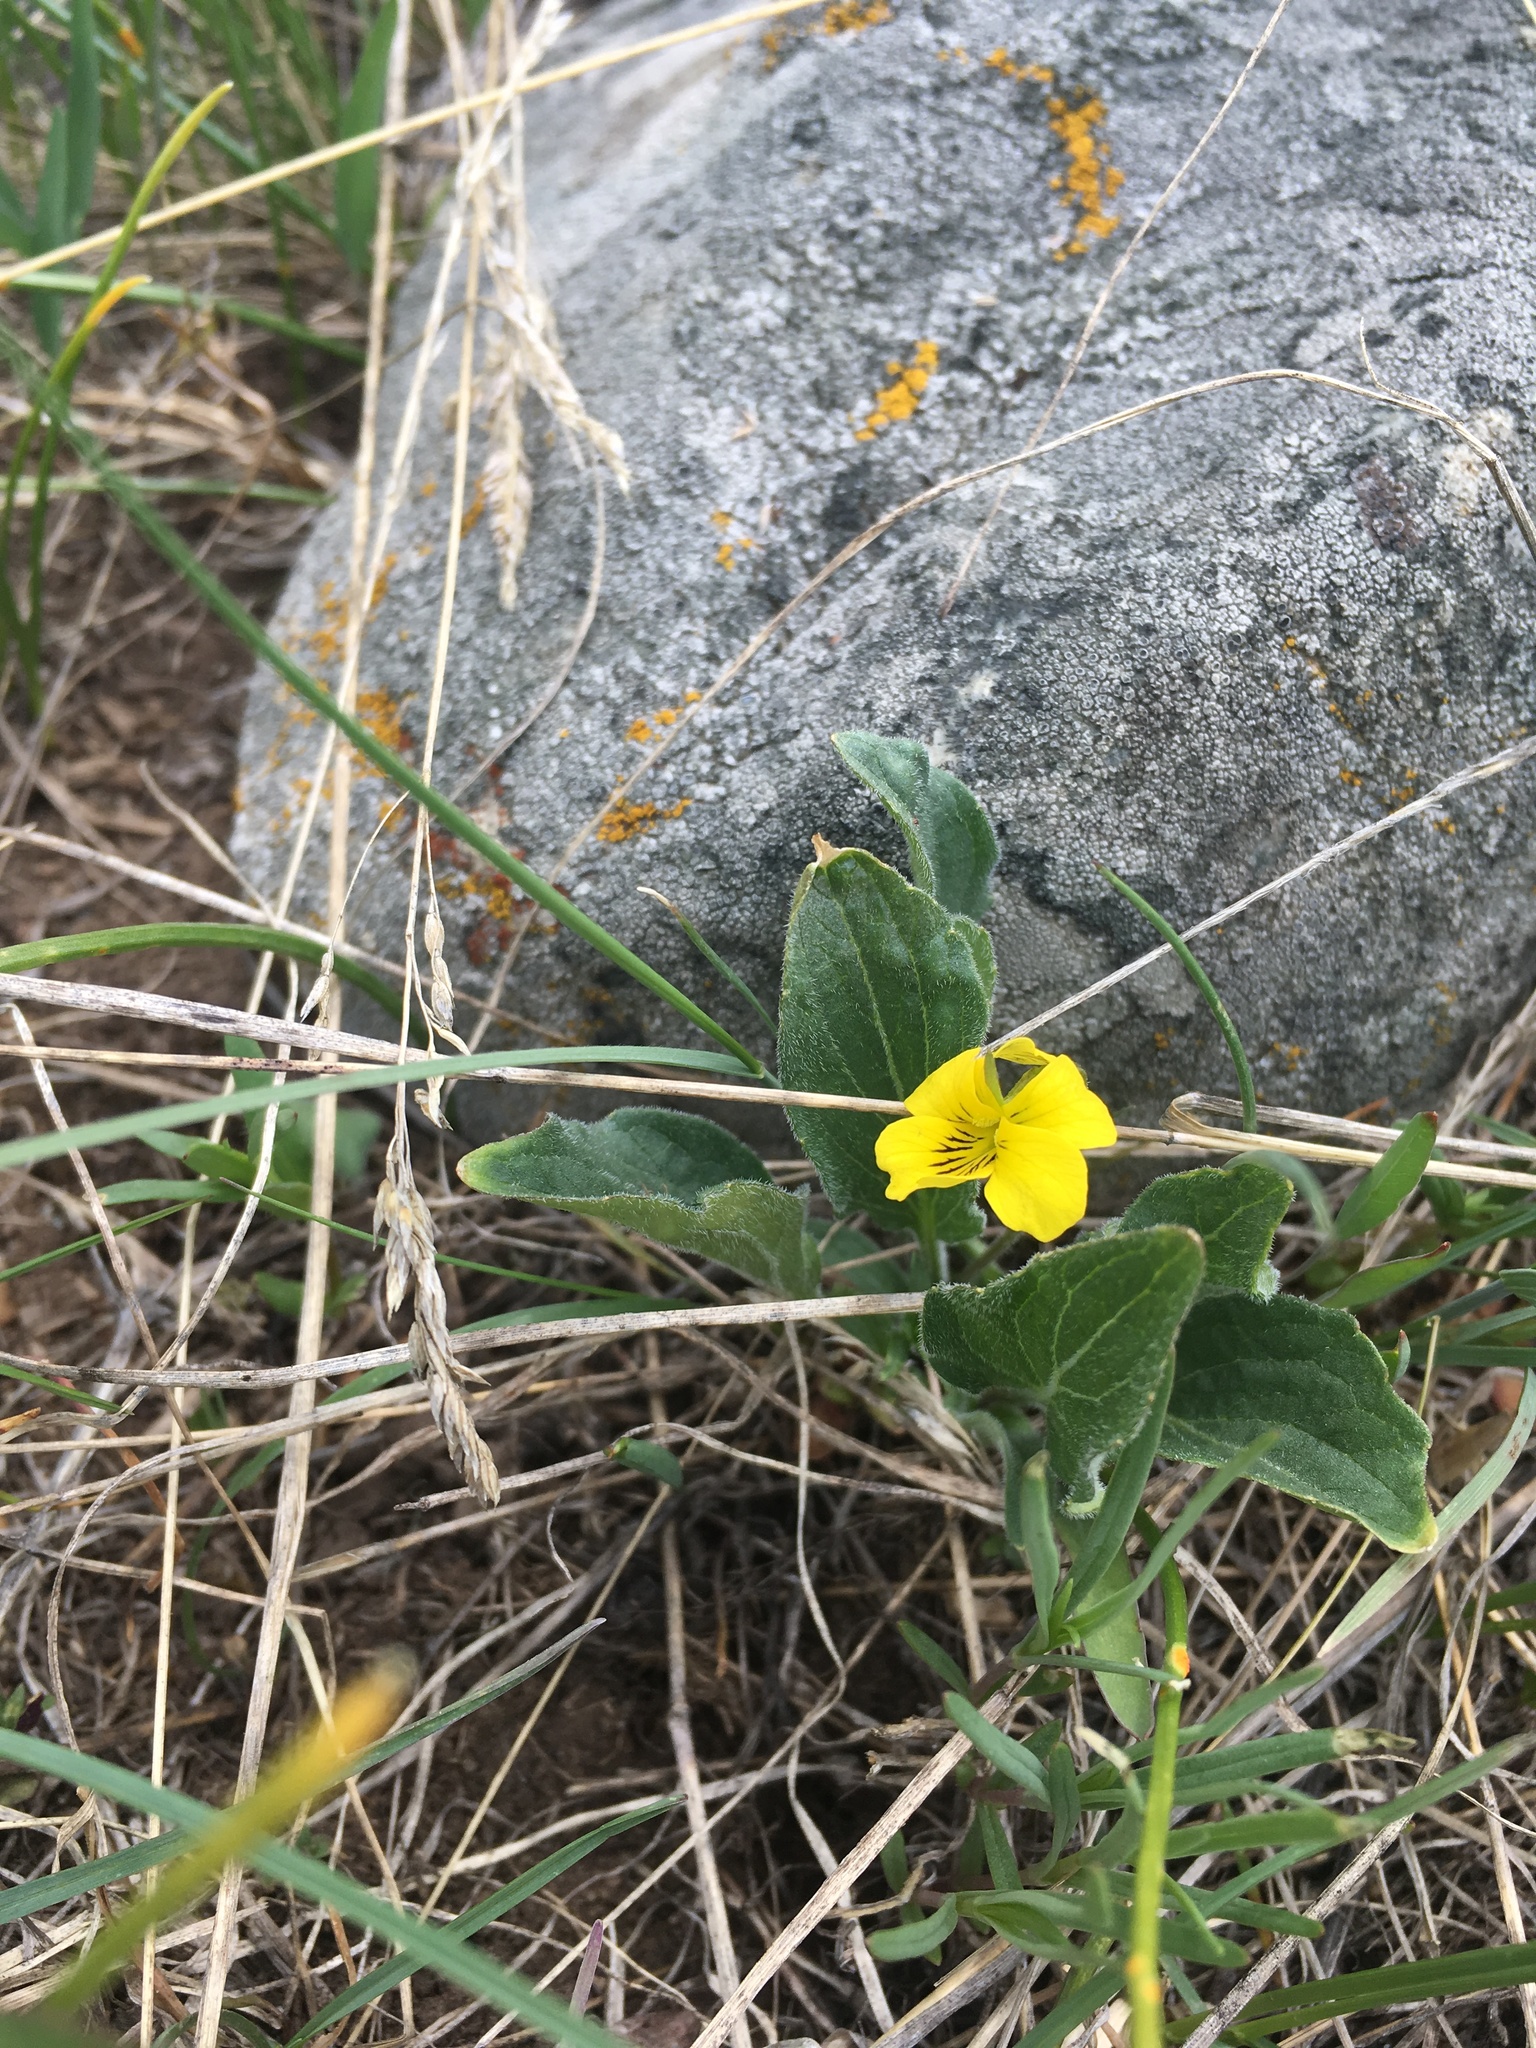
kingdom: Plantae
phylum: Tracheophyta
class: Magnoliopsida
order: Malpighiales
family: Violaceae
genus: Viola
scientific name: Viola nuttallii
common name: Yellow prairie violet
